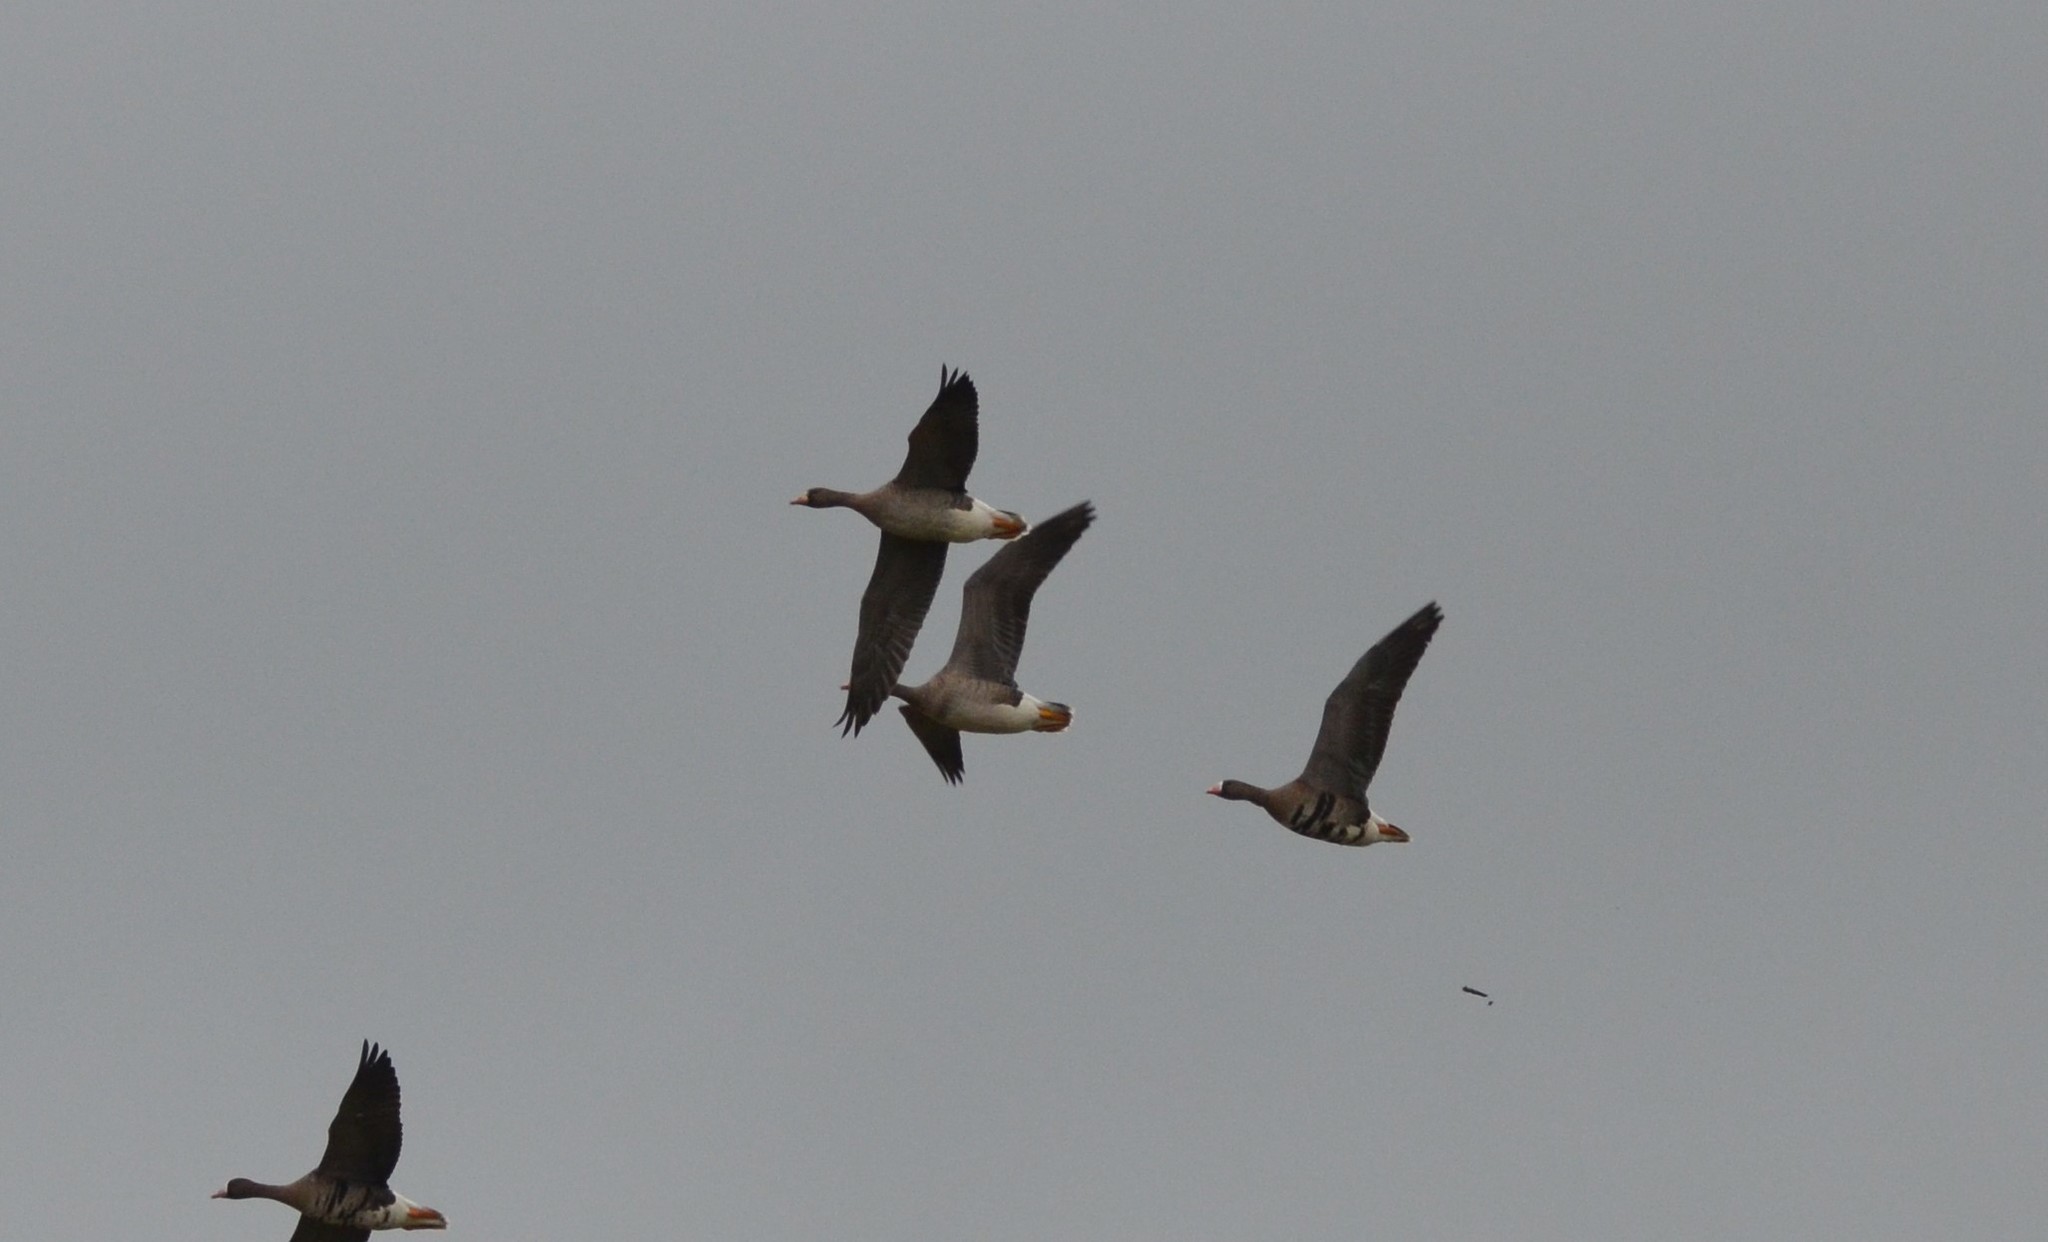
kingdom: Animalia
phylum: Chordata
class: Aves
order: Anseriformes
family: Anatidae
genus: Anser
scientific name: Anser albifrons
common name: Greater white-fronted goose
